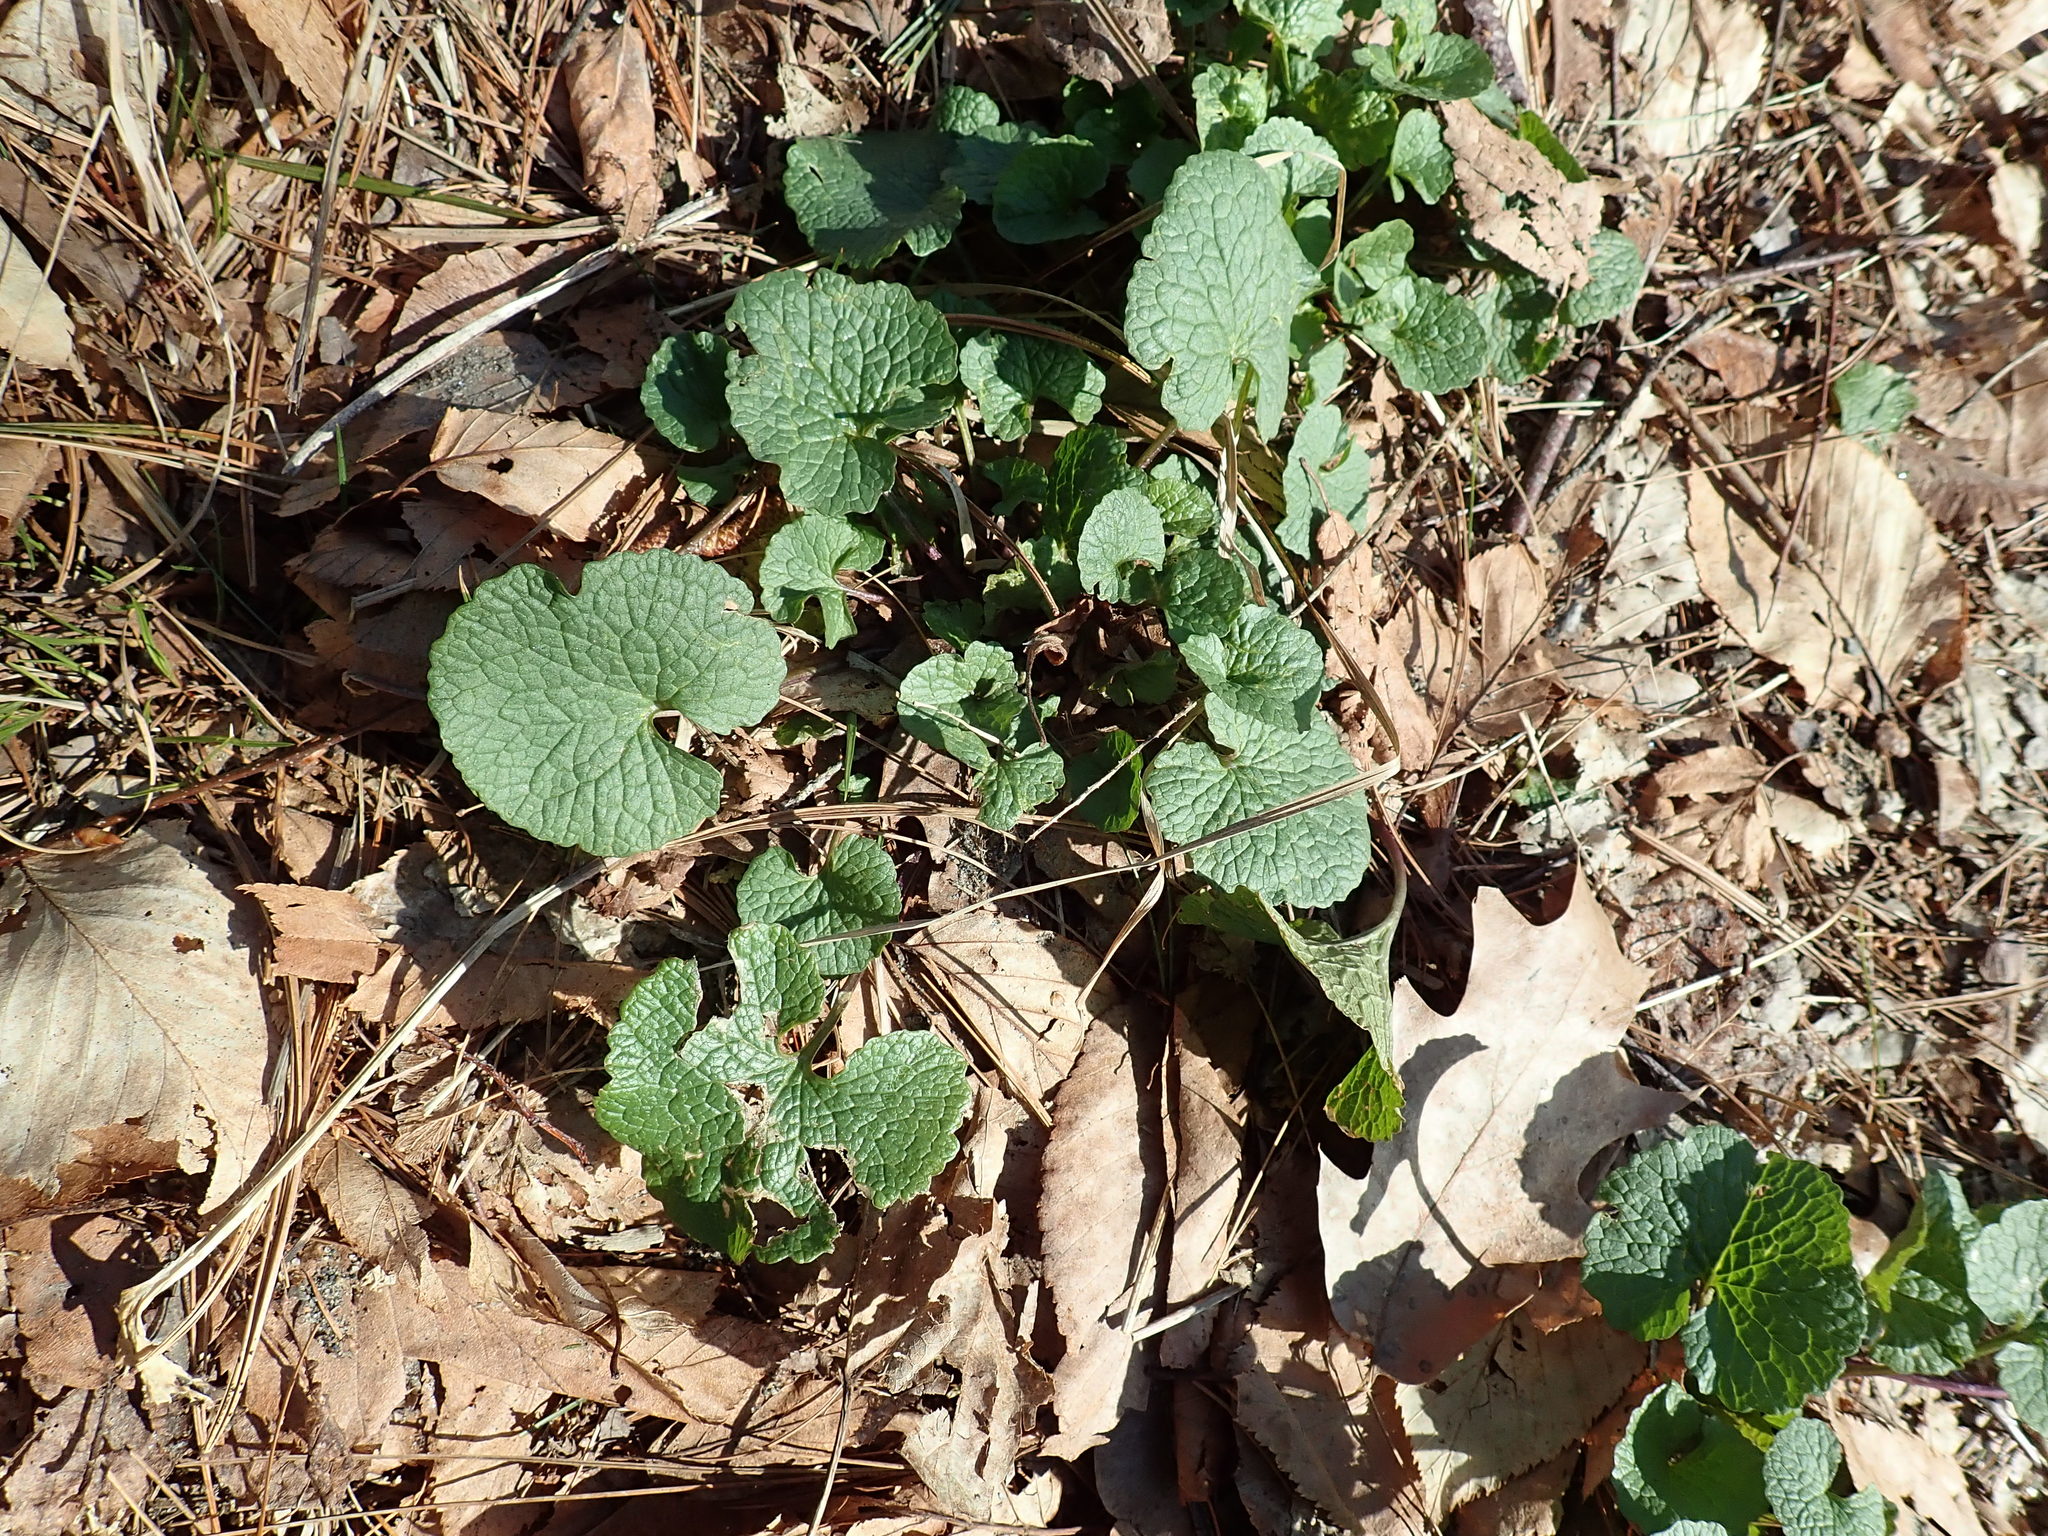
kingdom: Plantae
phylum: Tracheophyta
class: Magnoliopsida
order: Brassicales
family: Brassicaceae
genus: Alliaria
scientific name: Alliaria petiolata
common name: Garlic mustard
